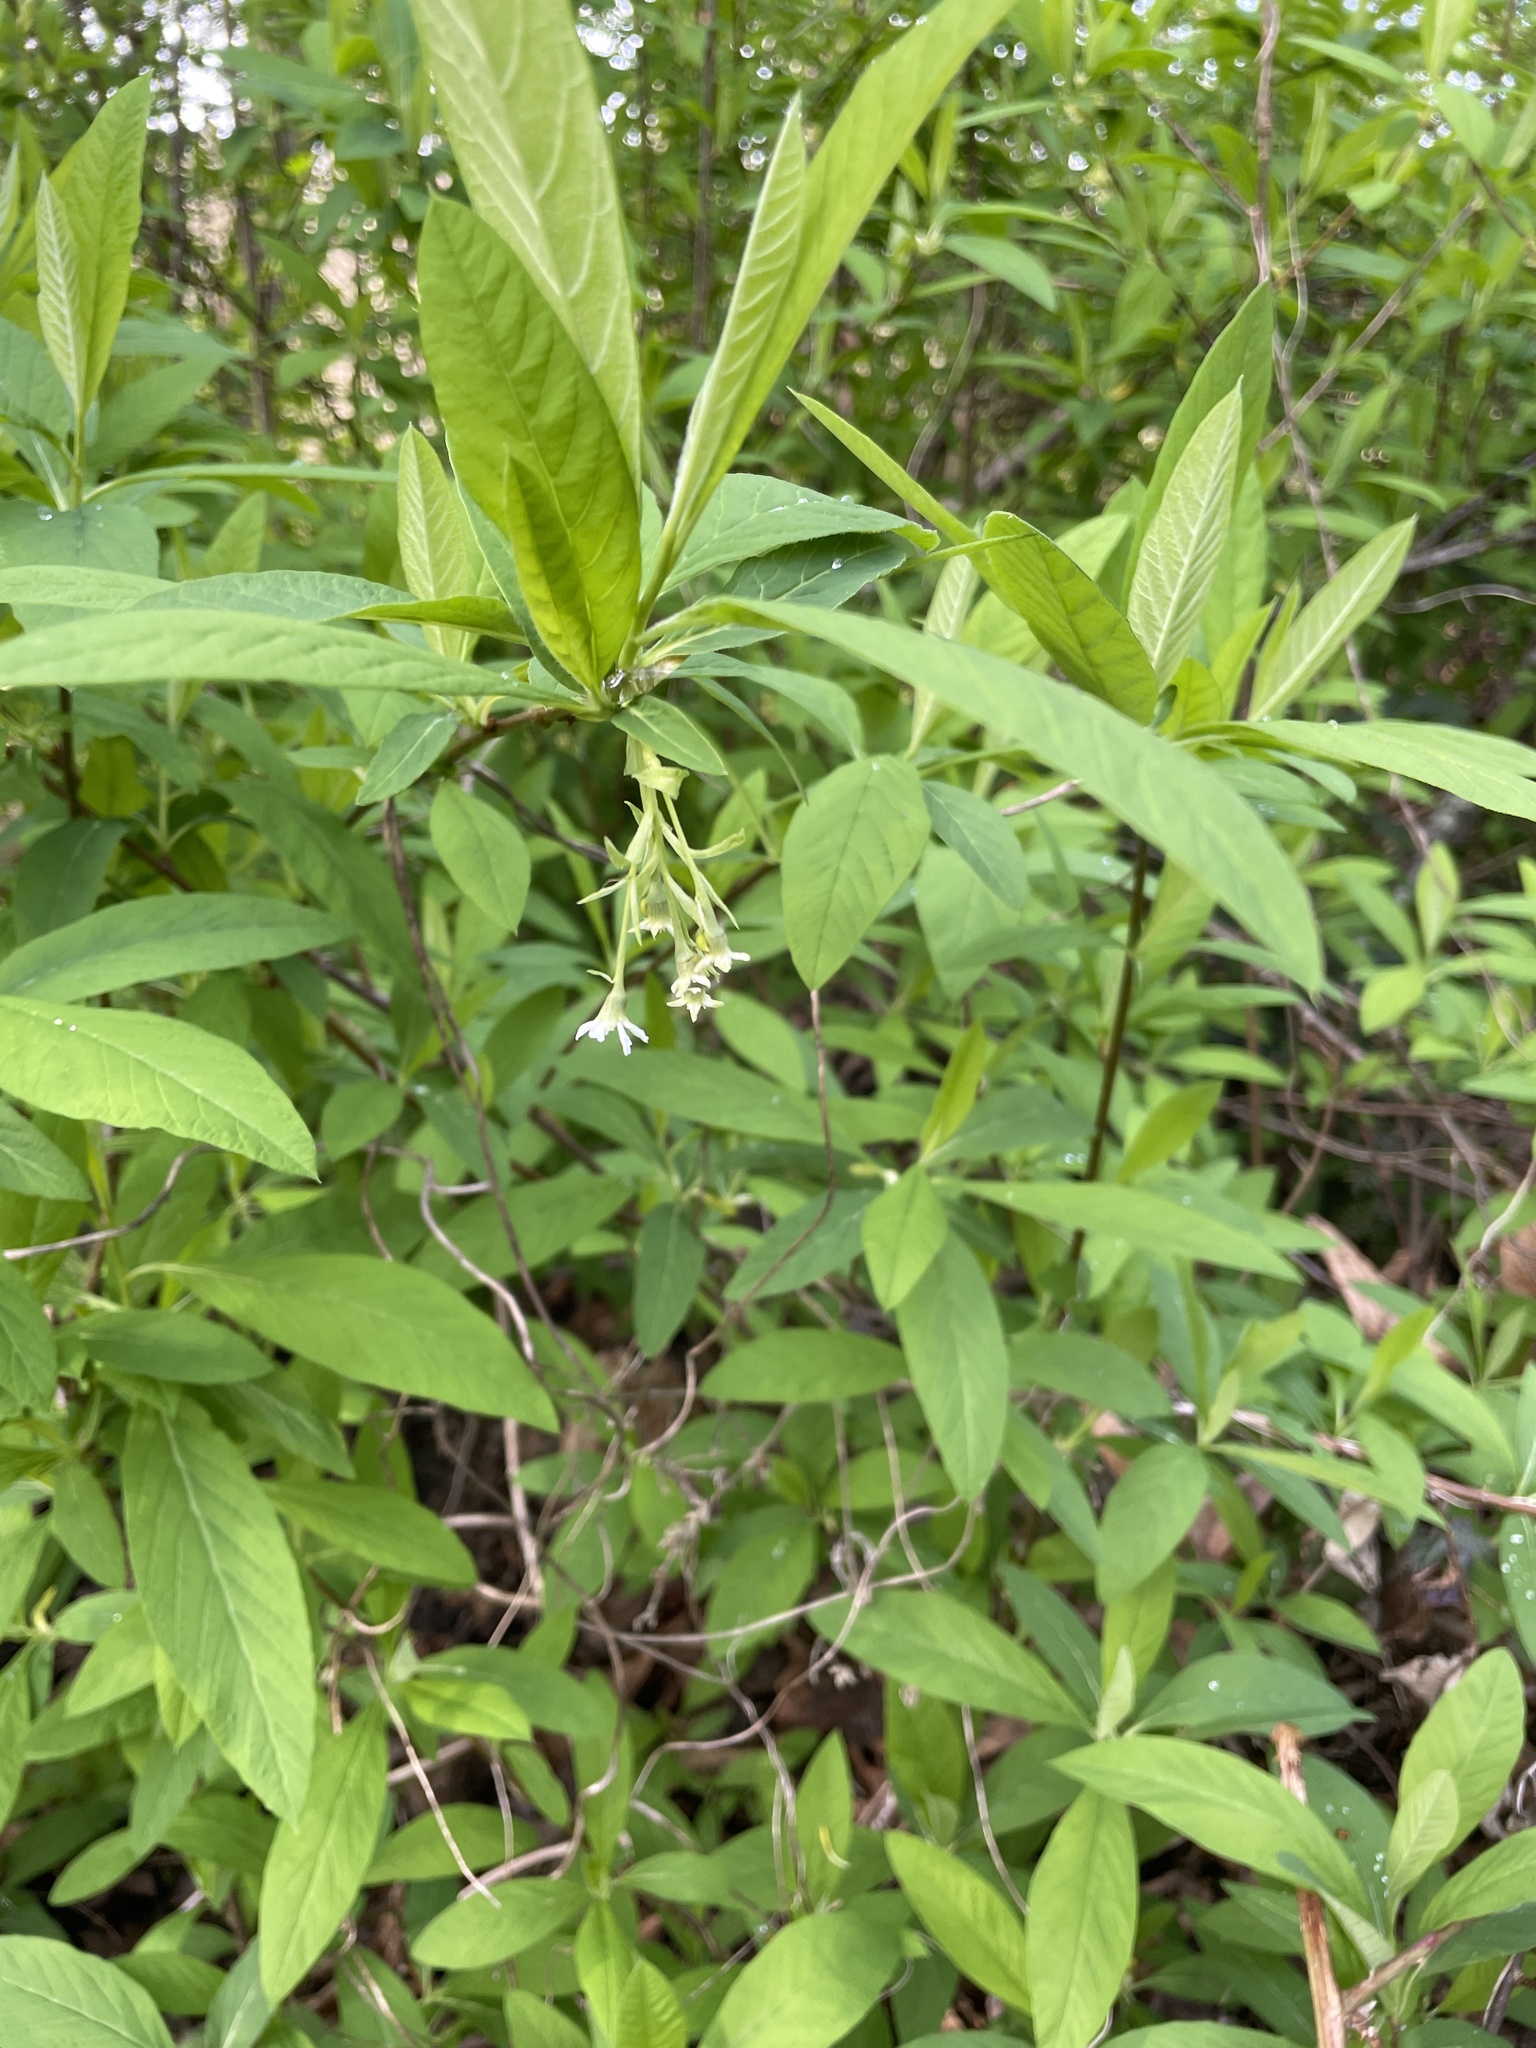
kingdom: Plantae
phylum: Tracheophyta
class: Magnoliopsida
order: Rosales
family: Rosaceae
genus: Oemleria
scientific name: Oemleria cerasiformis
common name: Osoberry
